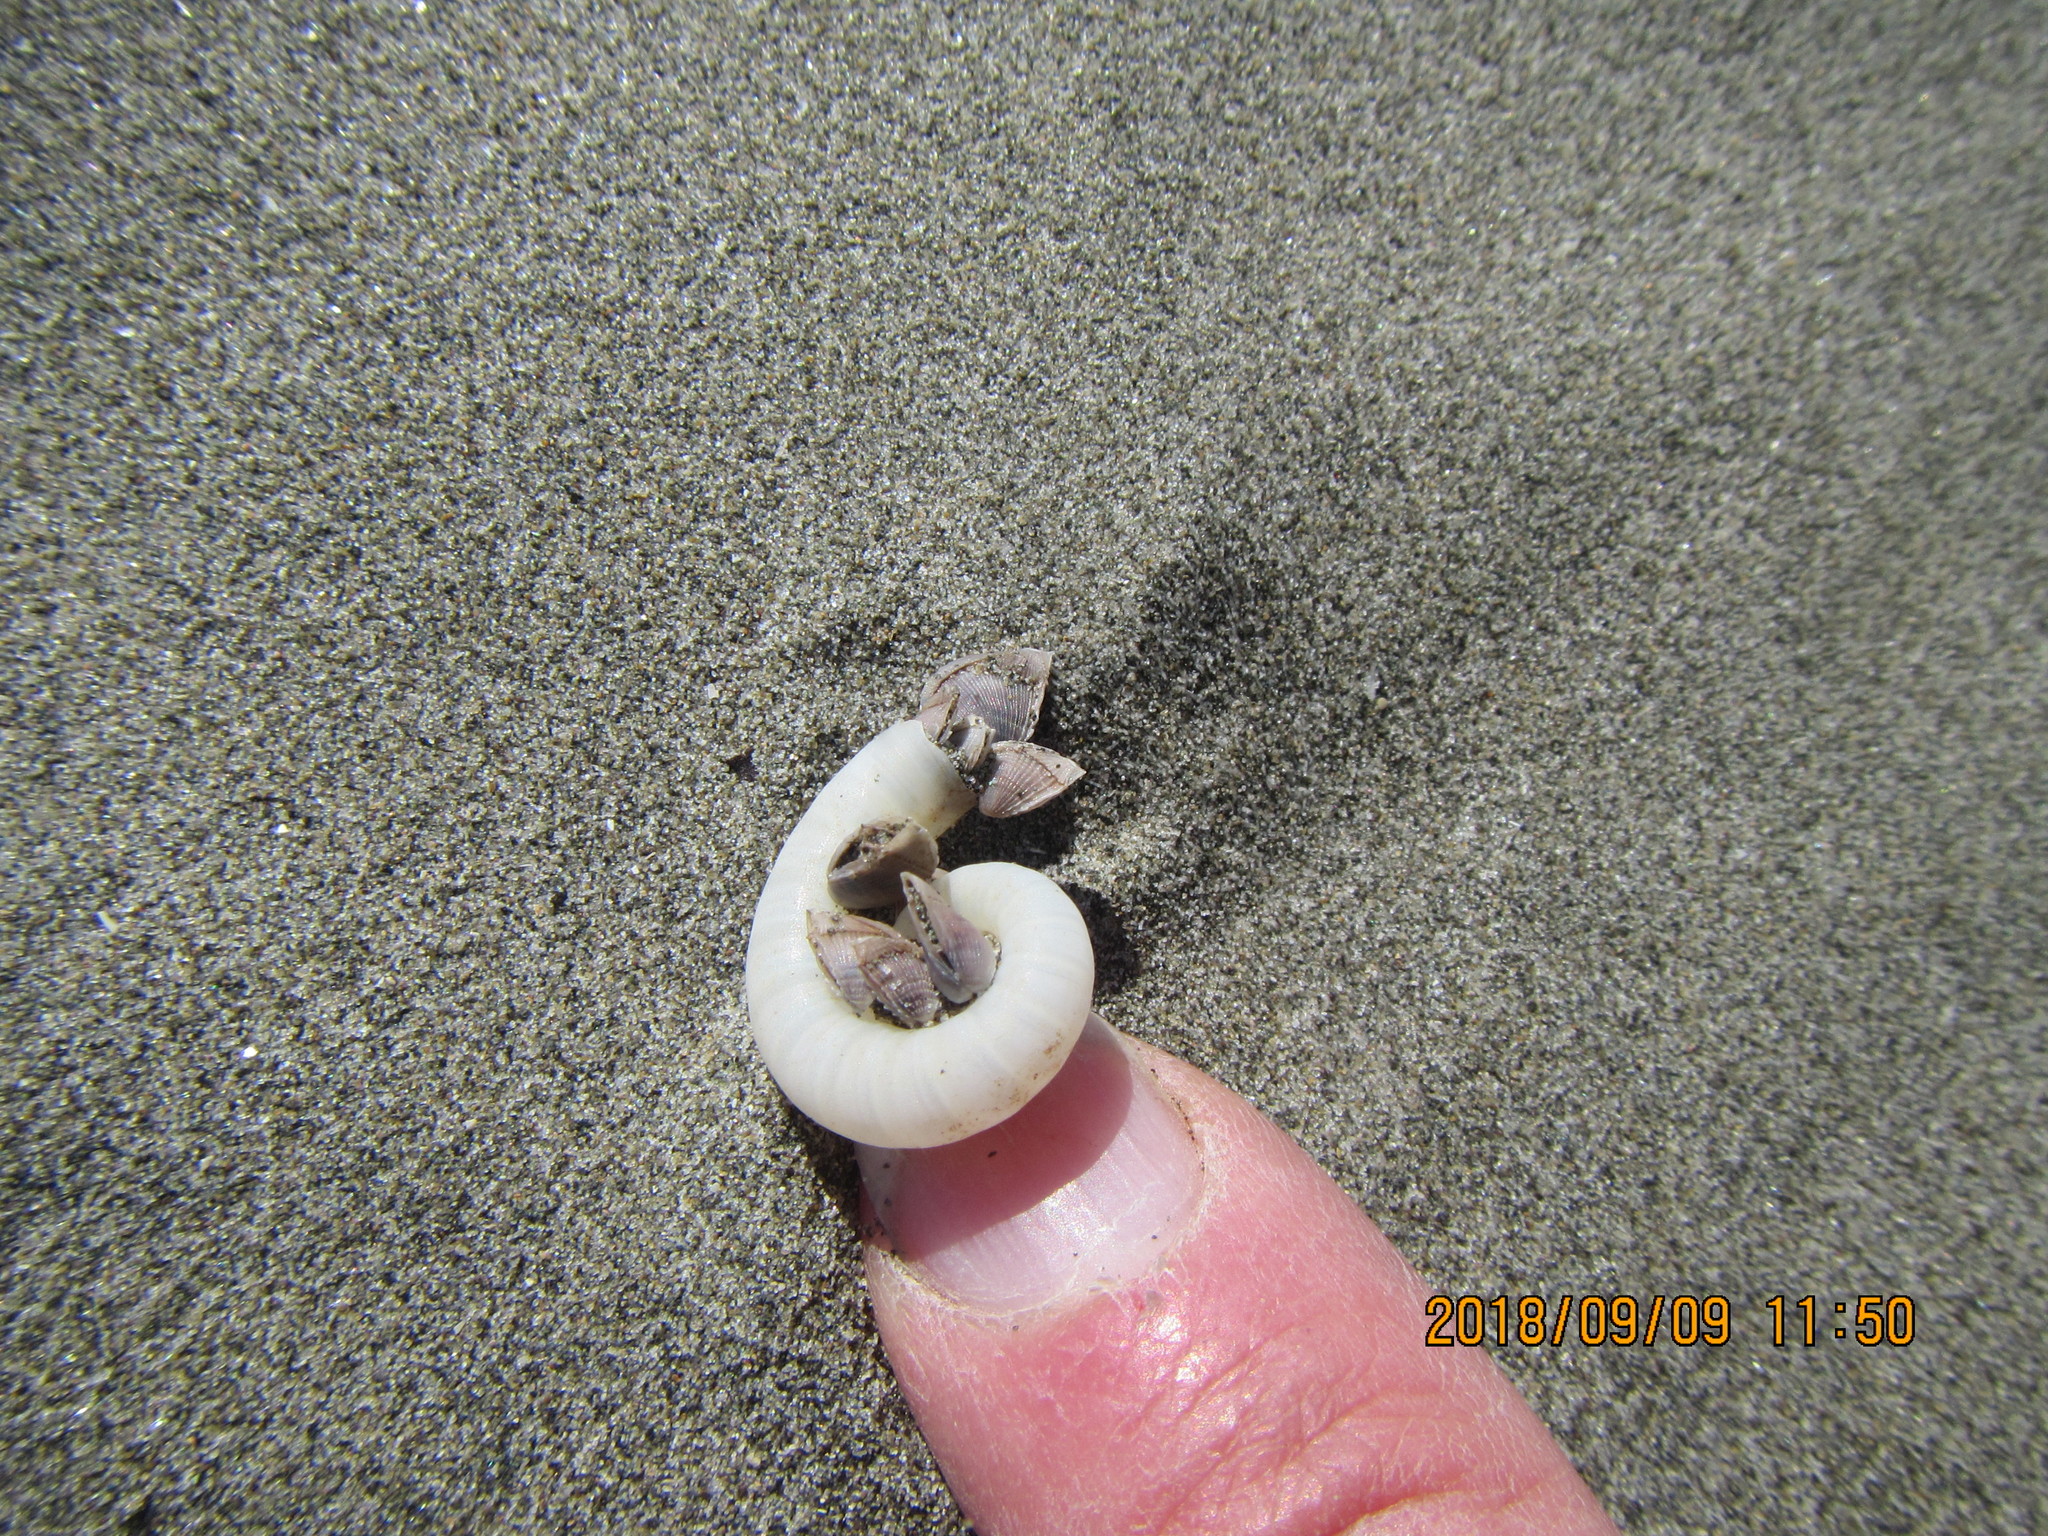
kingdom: Animalia
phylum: Arthropoda
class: Maxillopoda
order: Pedunculata
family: Lepadidae
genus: Lepas
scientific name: Lepas pectinata
